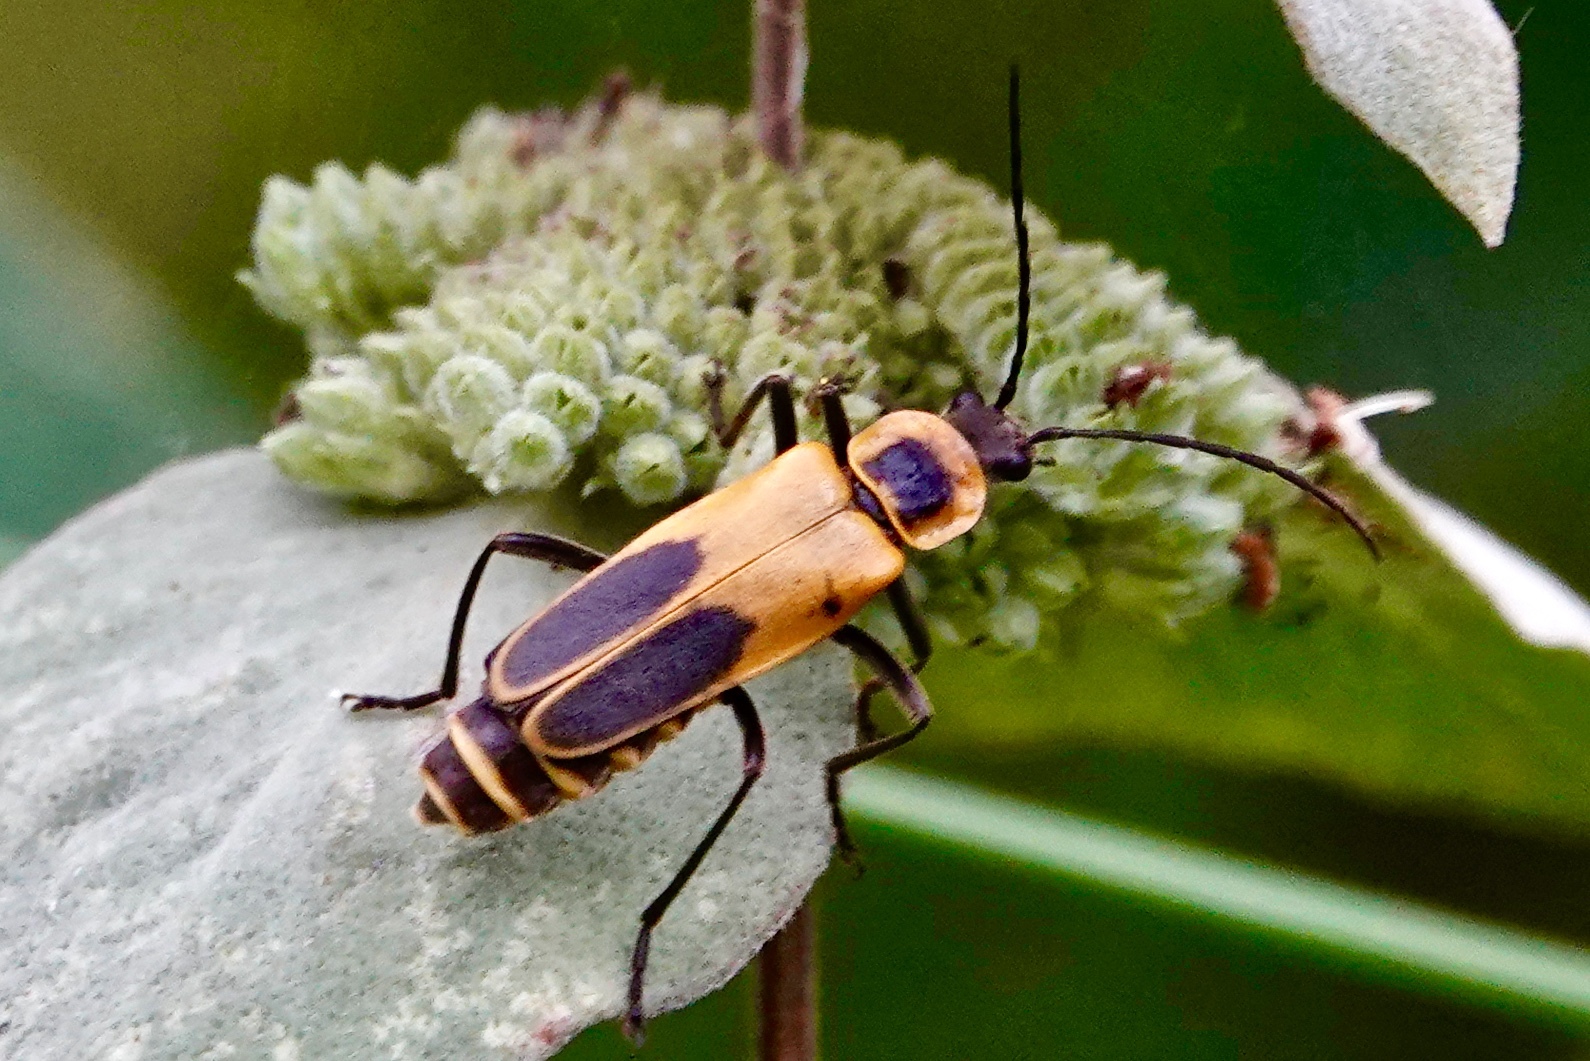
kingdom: Animalia
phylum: Arthropoda
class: Insecta
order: Coleoptera
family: Cantharidae
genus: Chauliognathus
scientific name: Chauliognathus pensylvanicus
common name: Goldenrod soldier beetle
